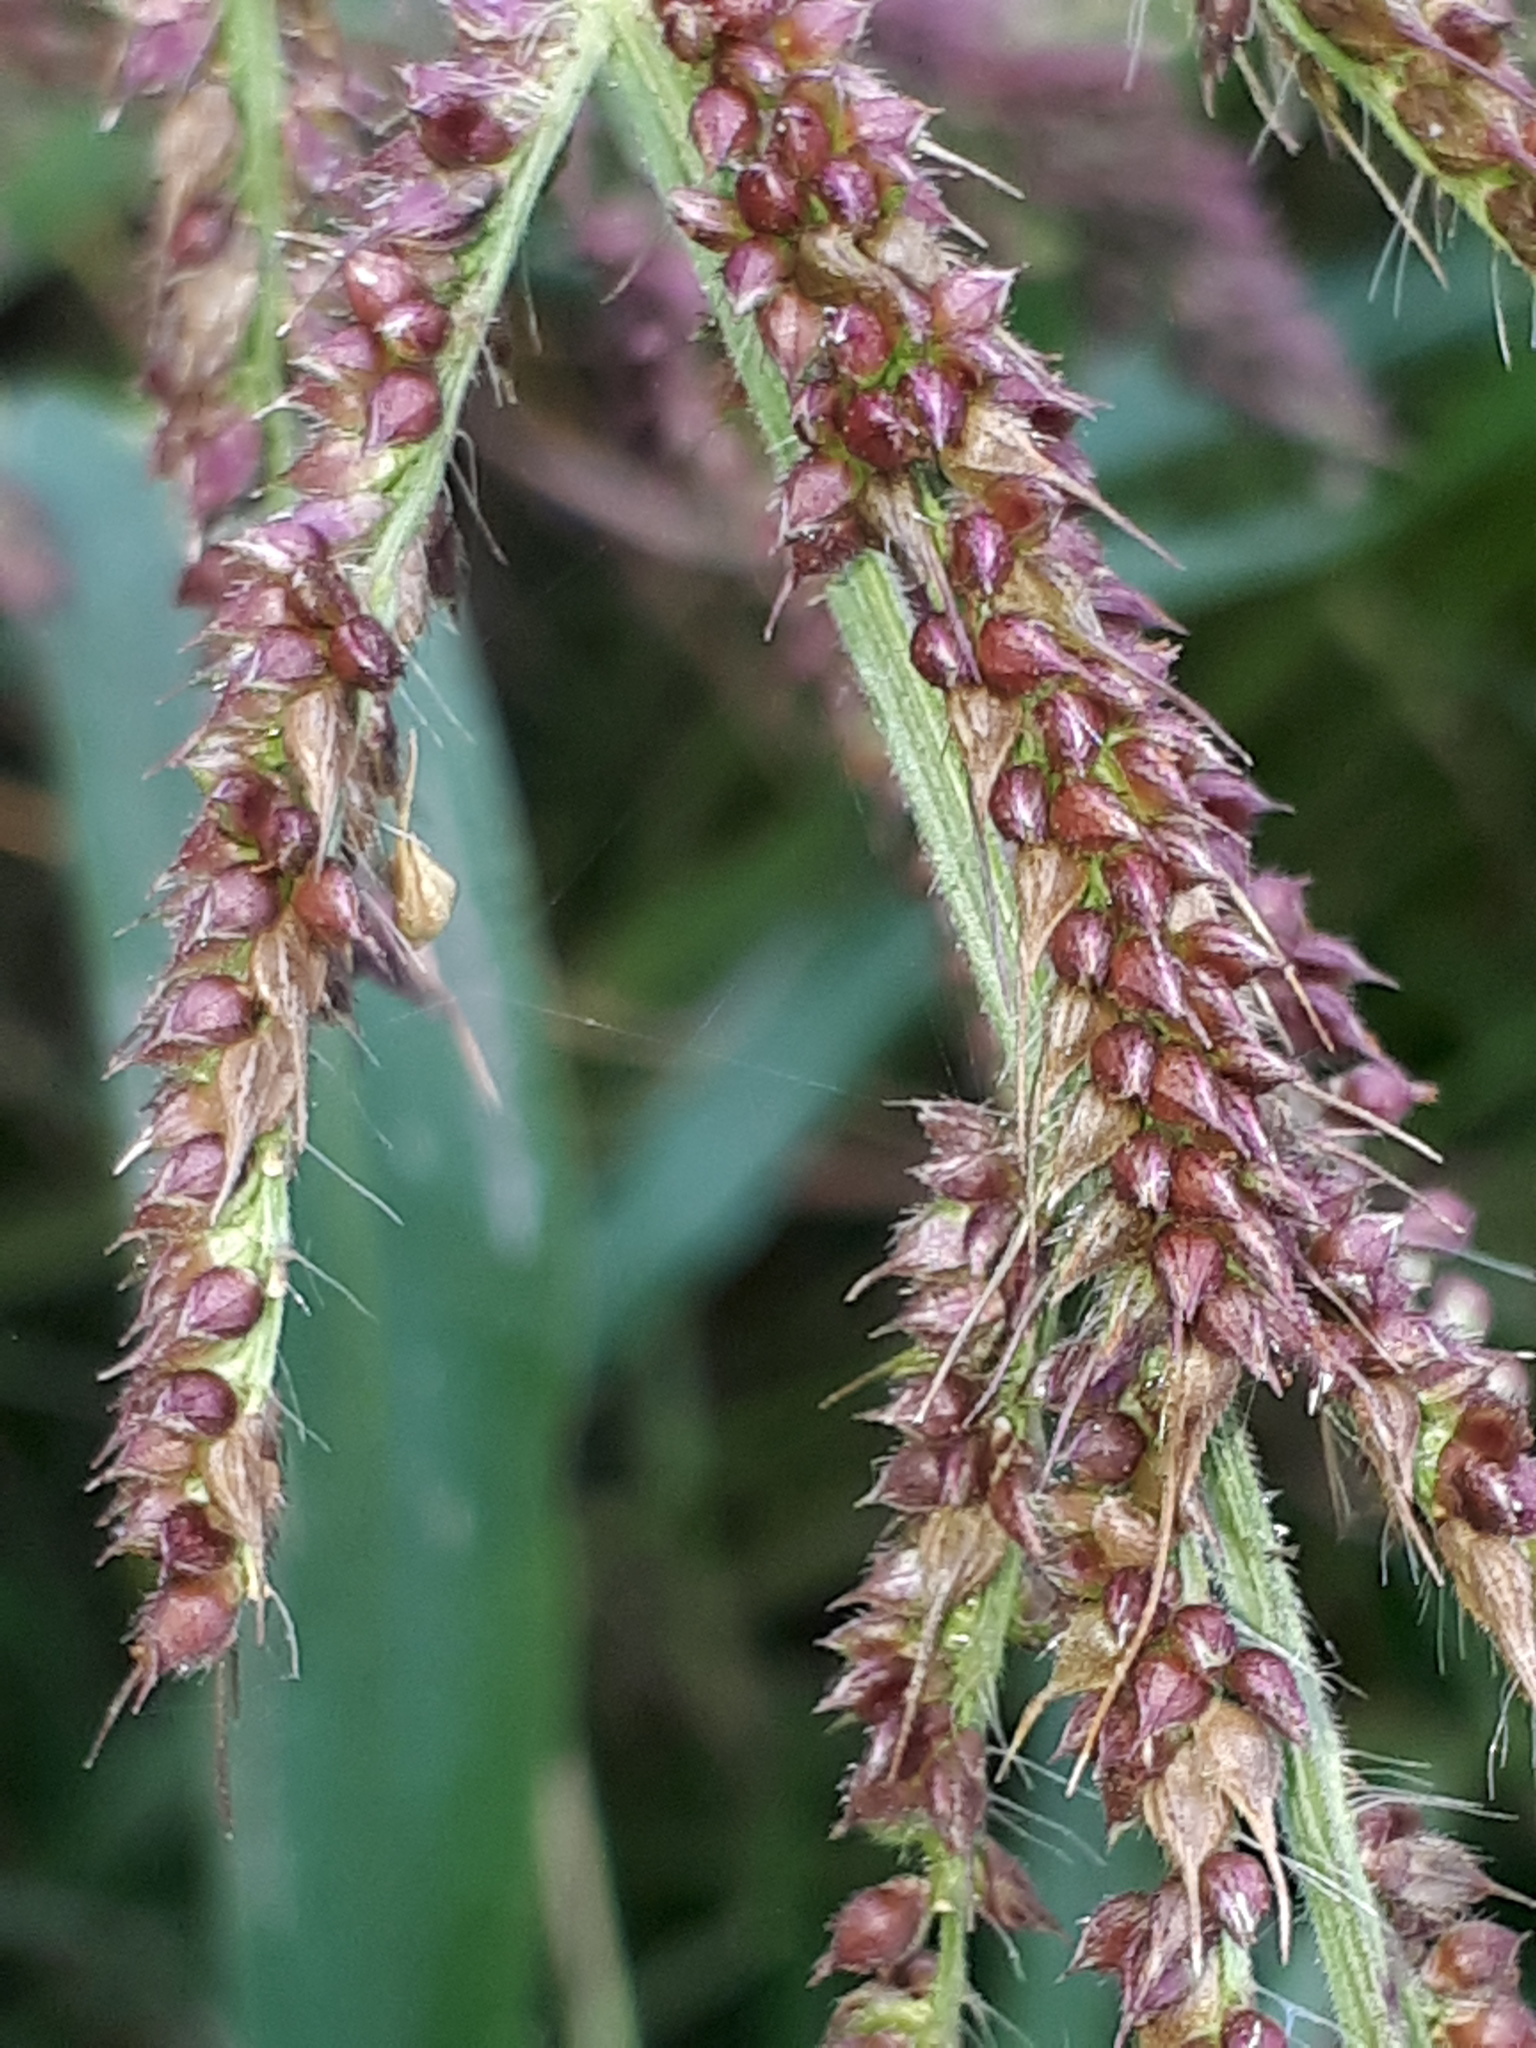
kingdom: Plantae
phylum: Tracheophyta
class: Liliopsida
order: Poales
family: Poaceae
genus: Echinochloa
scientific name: Echinochloa crus-galli
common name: Cockspur
